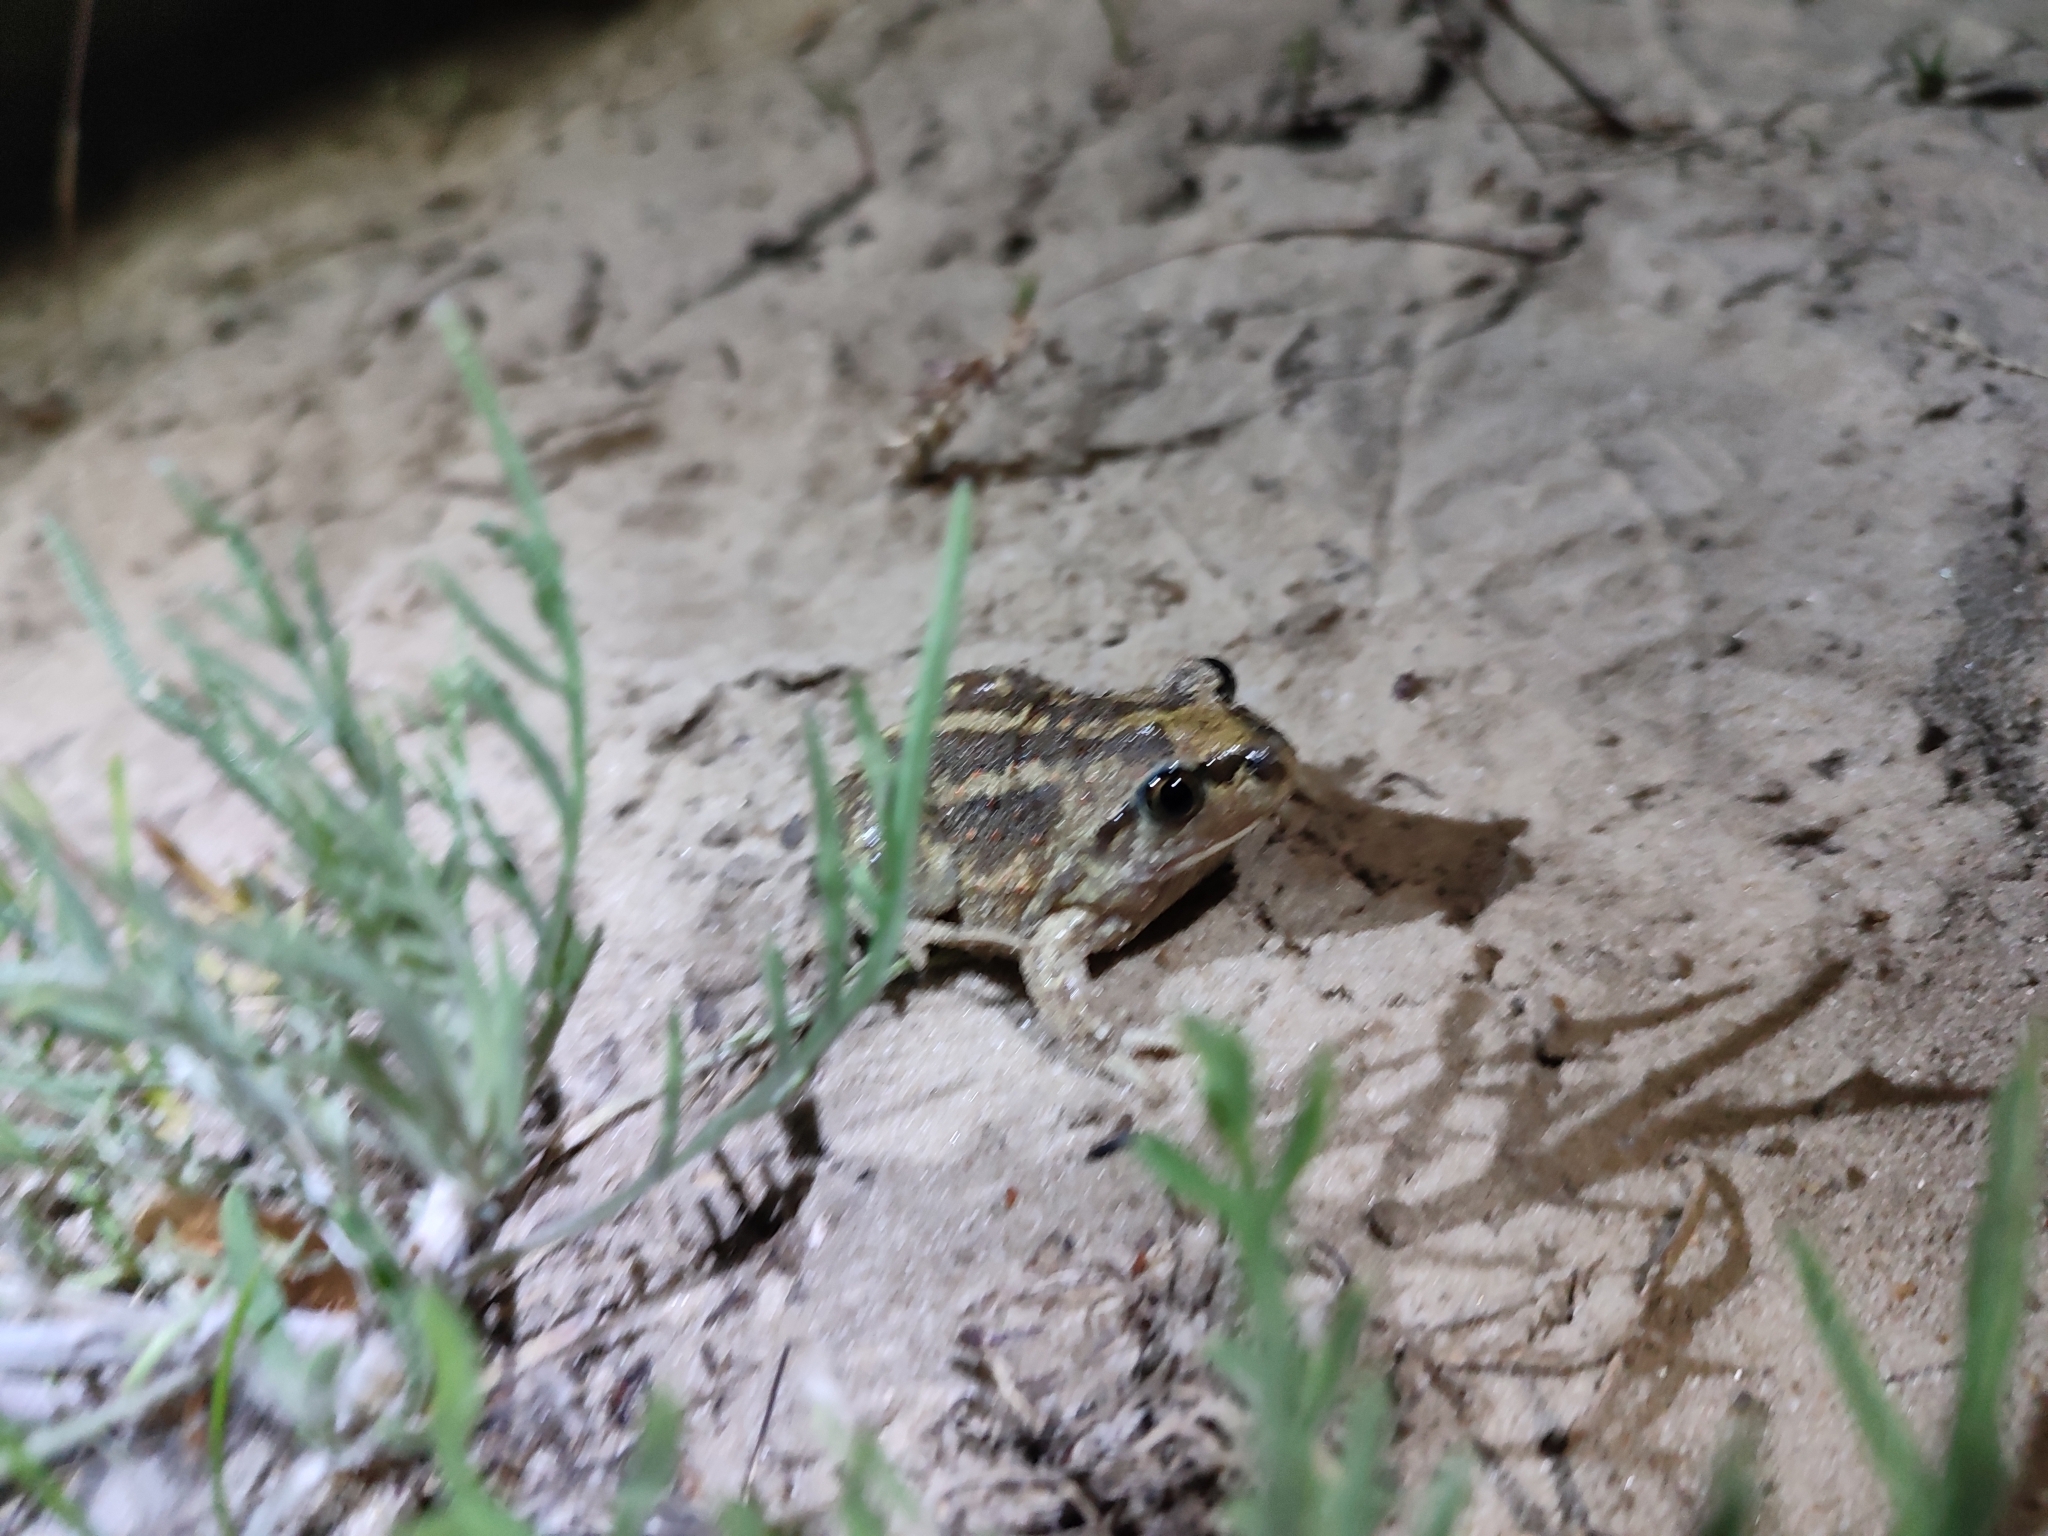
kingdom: Animalia
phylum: Chordata
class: Amphibia
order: Anura
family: Pelobatidae
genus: Pelobates
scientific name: Pelobates vespertinus
